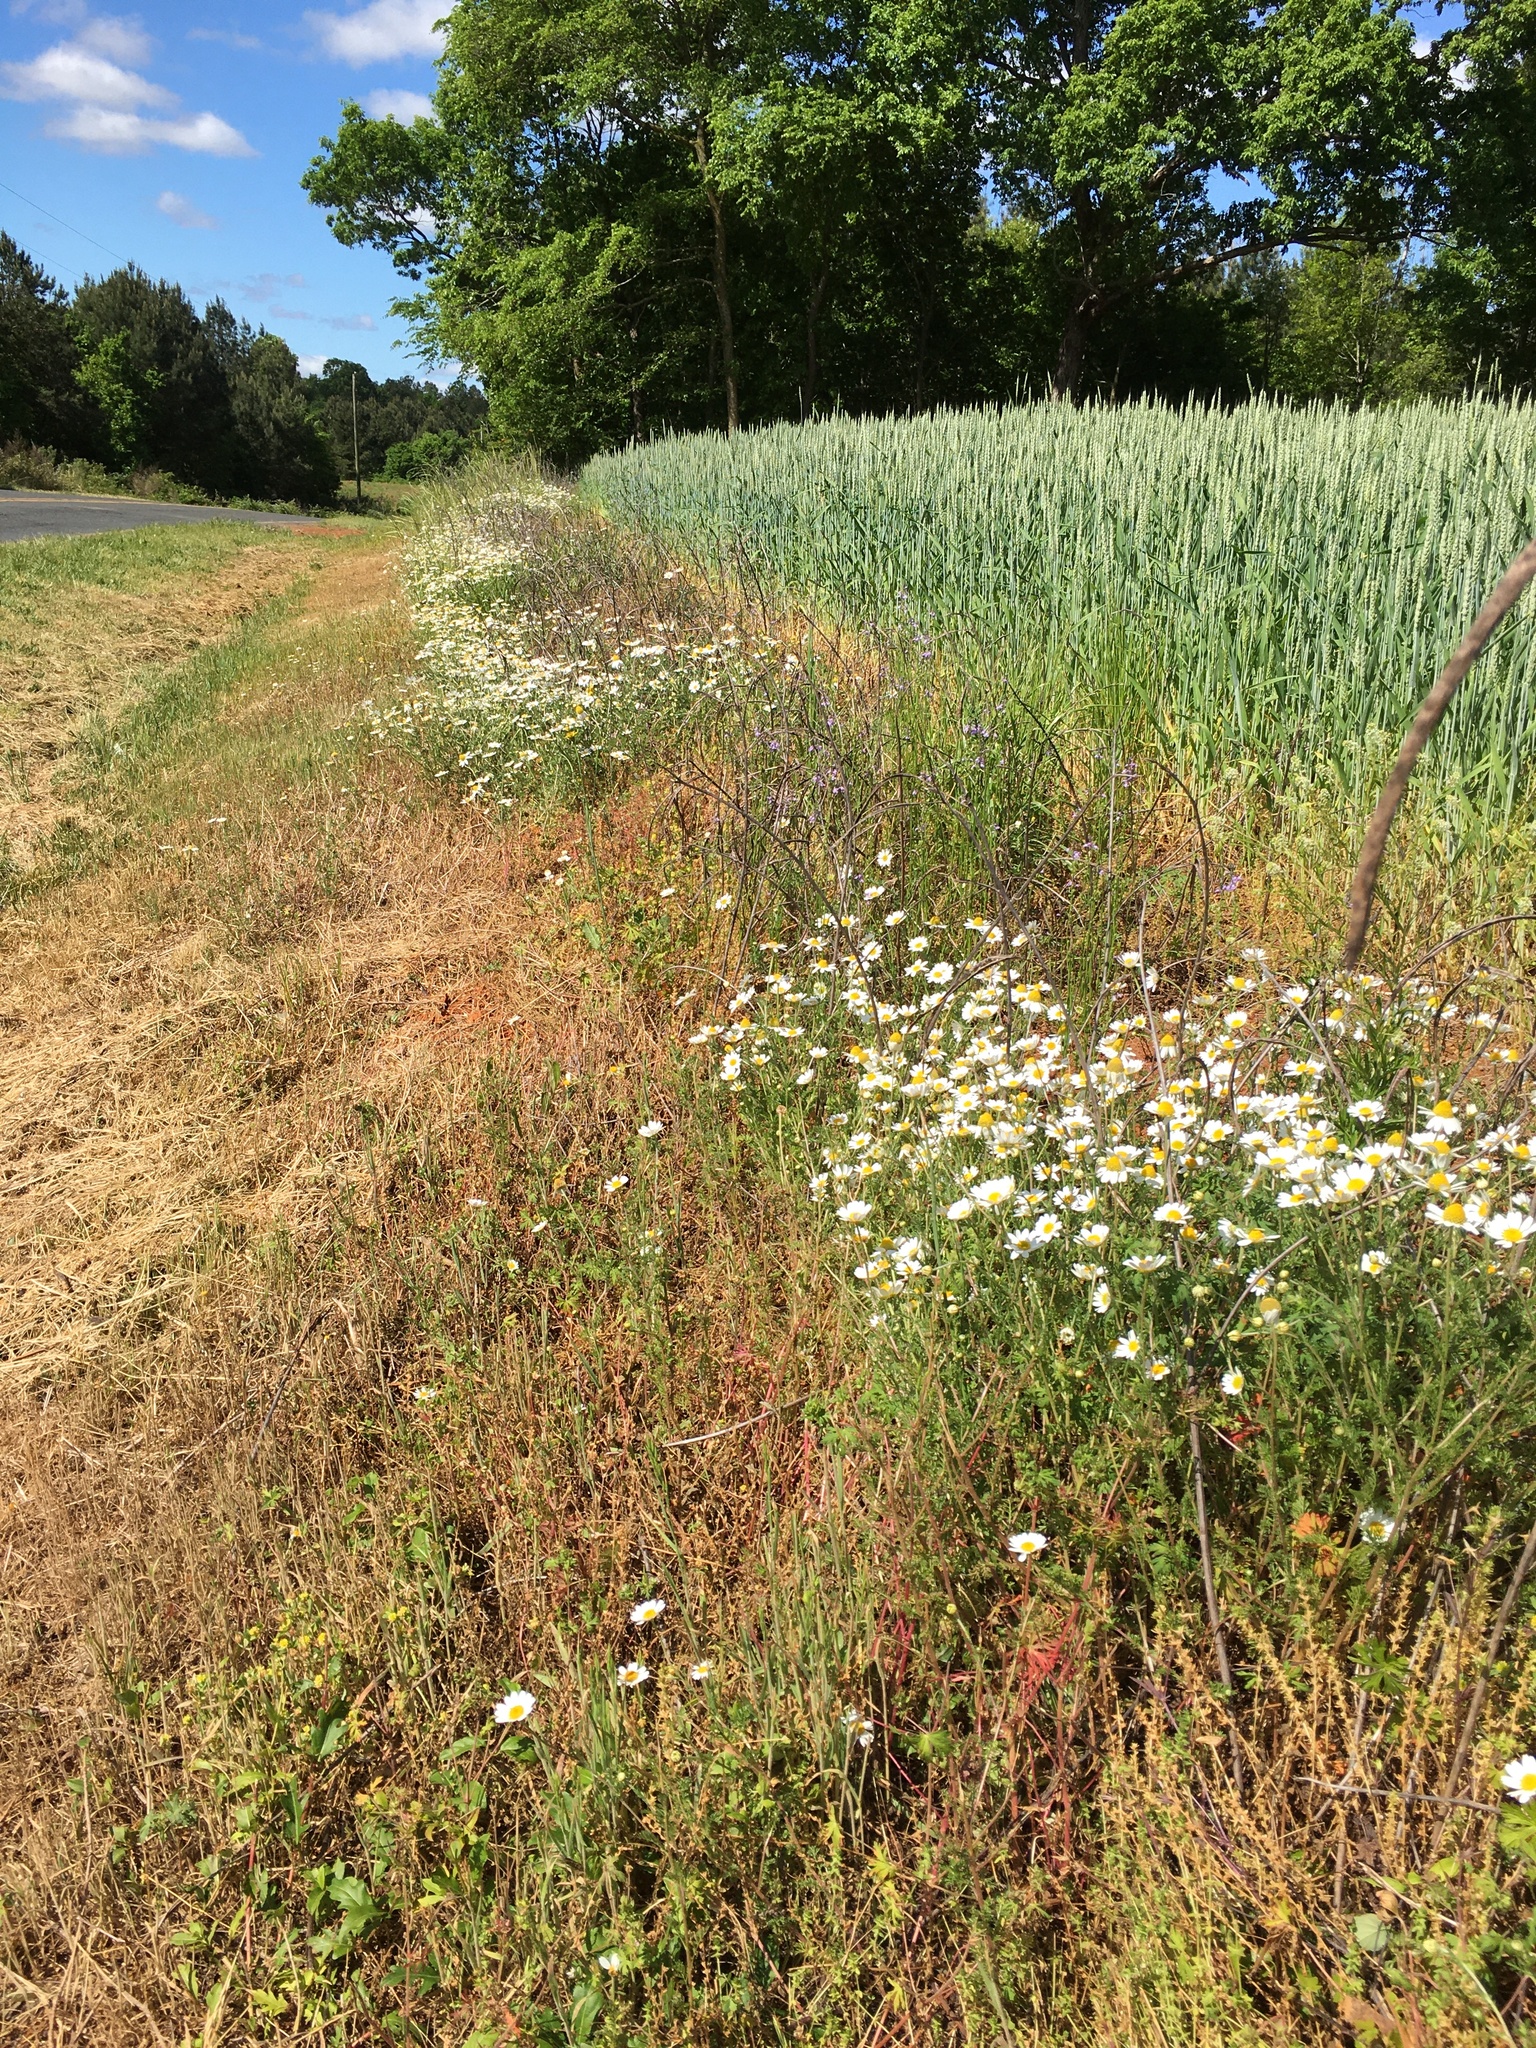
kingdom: Plantae
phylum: Tracheophyta
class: Magnoliopsida
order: Asterales
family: Asteraceae
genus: Anthemis
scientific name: Anthemis arvensis
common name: Corn chamomile
